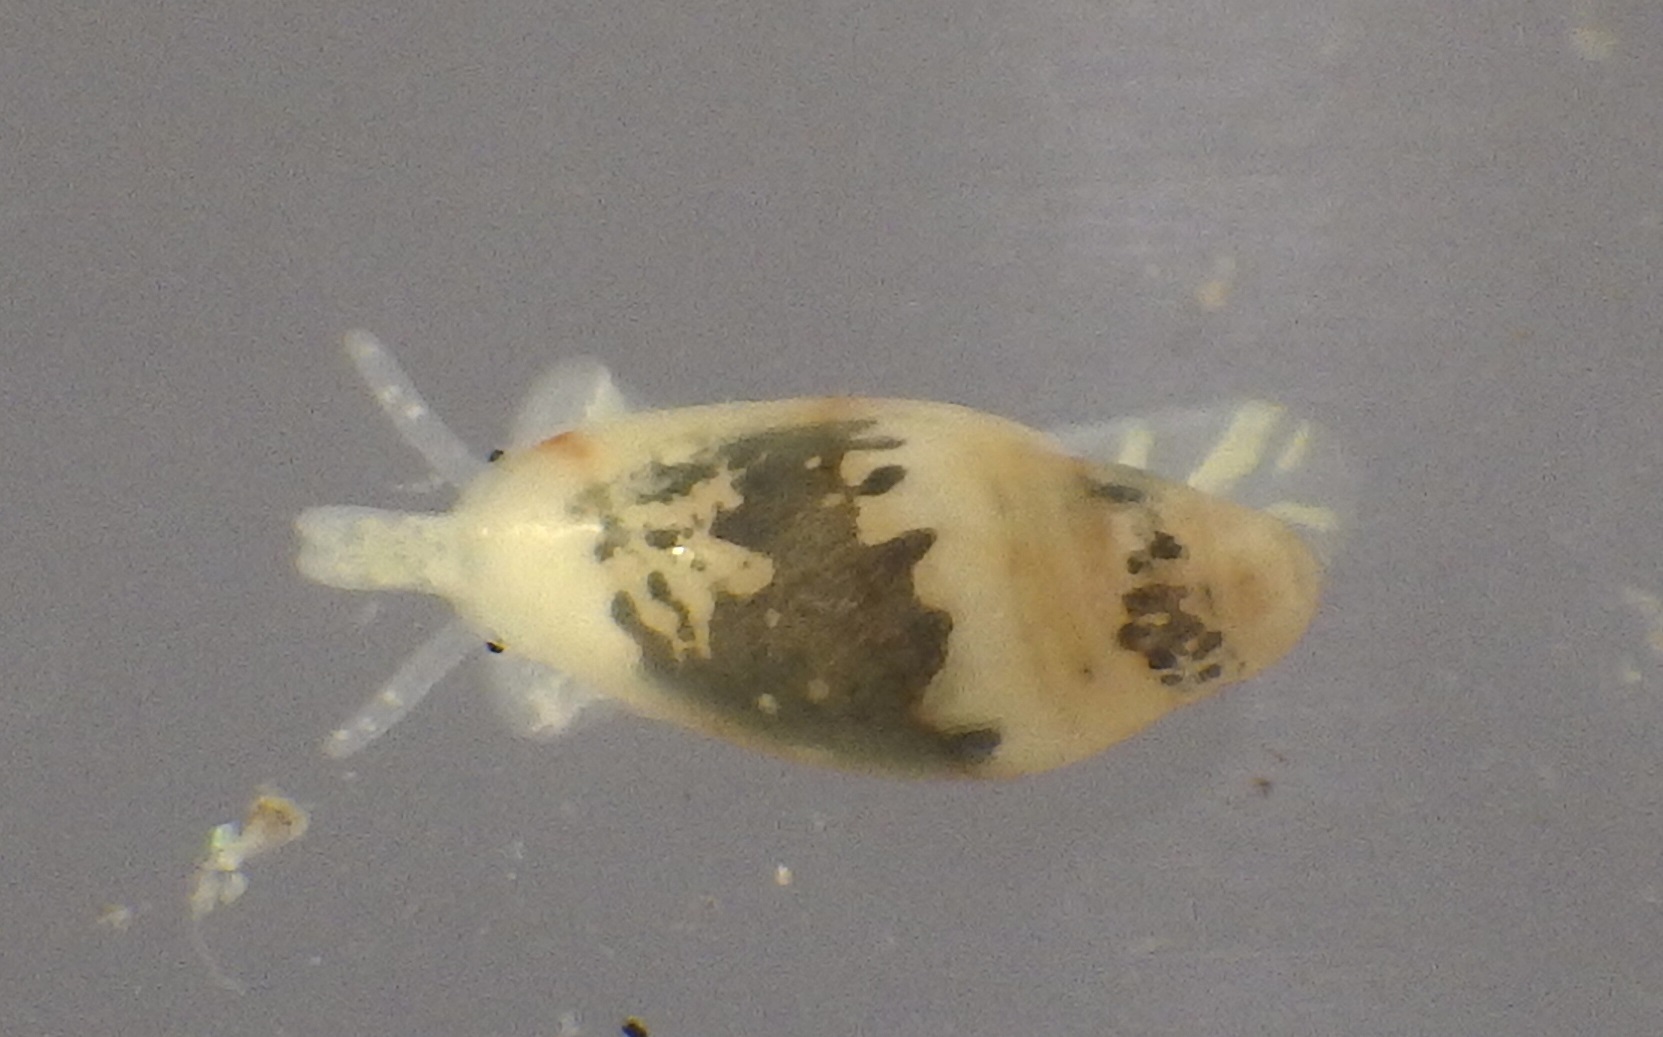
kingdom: Animalia
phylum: Mollusca
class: Gastropoda
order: Neogastropoda
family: Marginellidae
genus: Dentimargo
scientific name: Dentimargo cairoma
